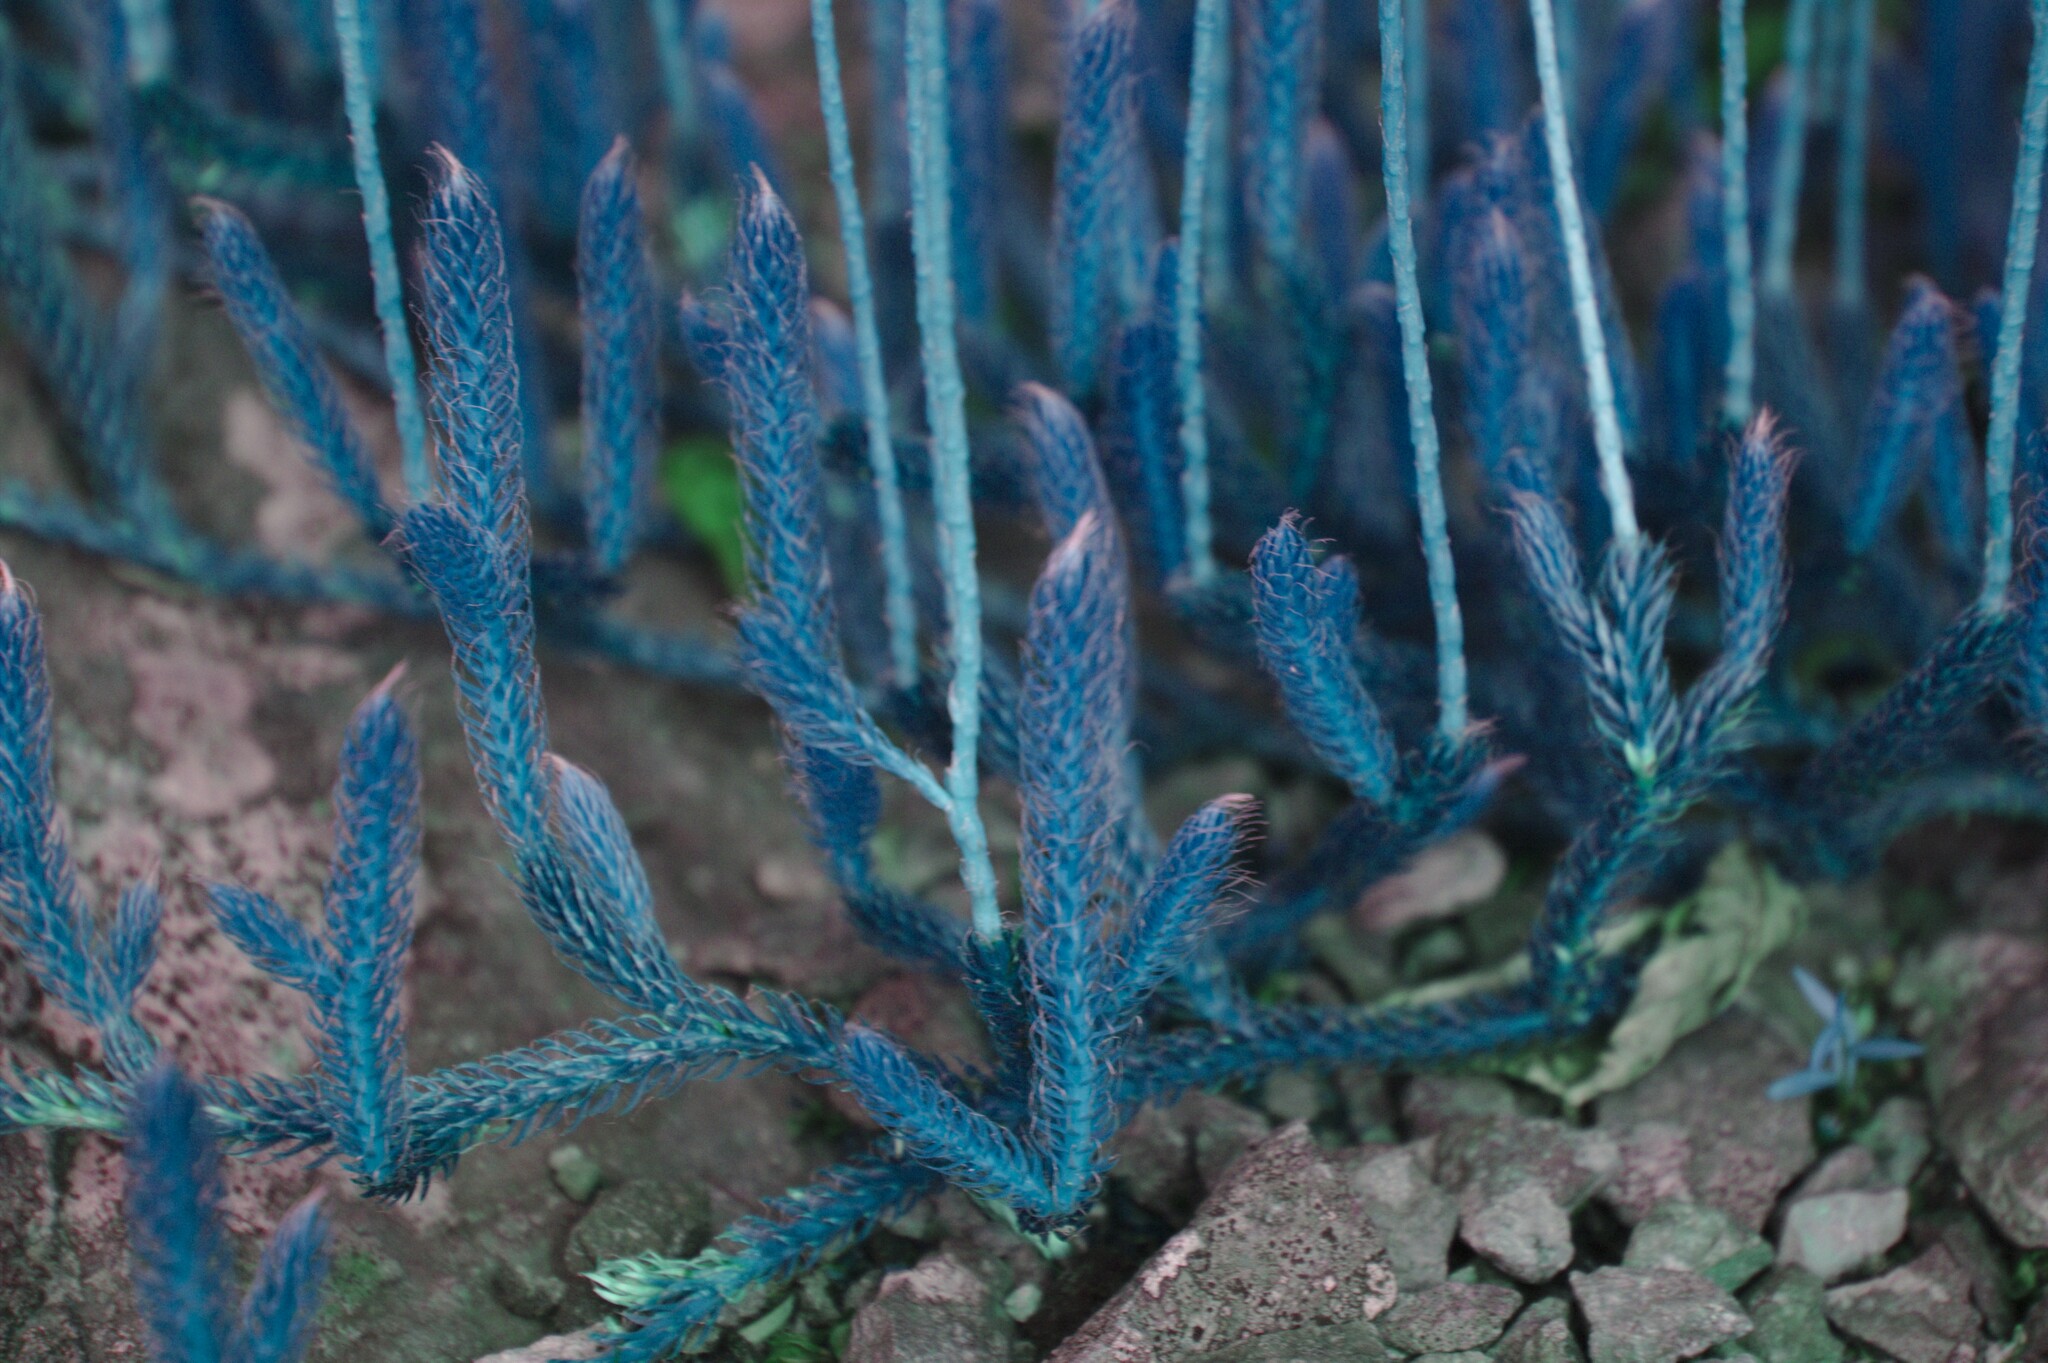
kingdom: Plantae
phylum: Tracheophyta
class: Lycopodiopsida
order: Lycopodiales
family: Lycopodiaceae
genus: Lycopodium
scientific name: Lycopodium lagopus
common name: One-cone clubmoss
